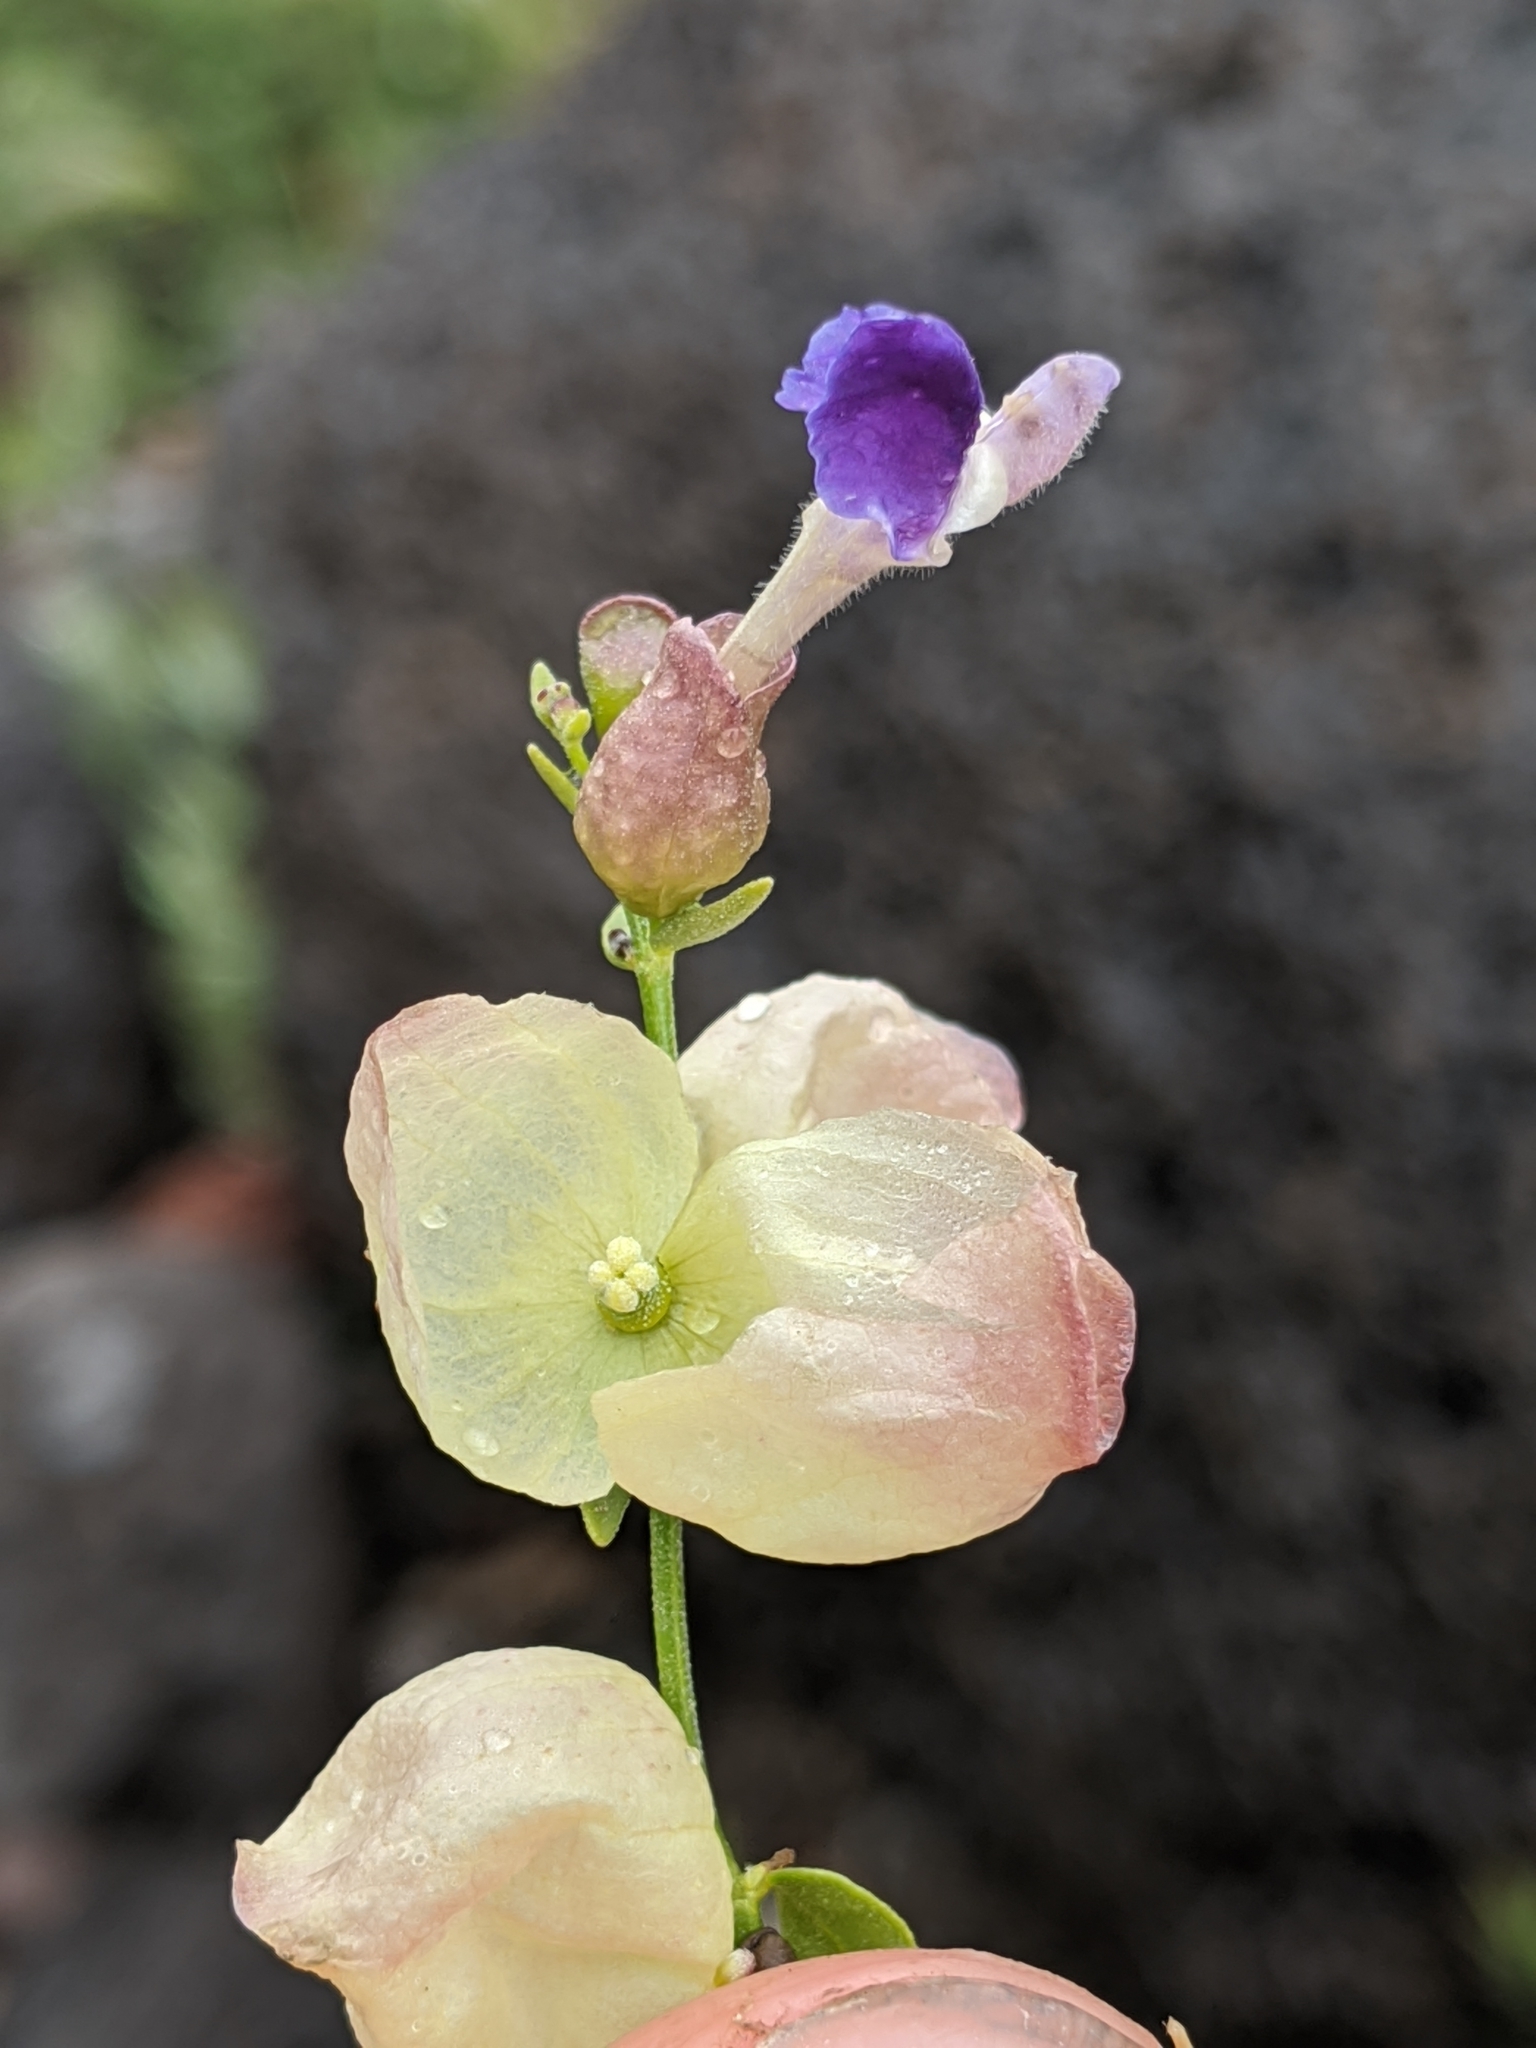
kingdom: Plantae
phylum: Tracheophyta
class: Magnoliopsida
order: Lamiales
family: Lamiaceae
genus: Scutellaria
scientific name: Scutellaria mexicana
